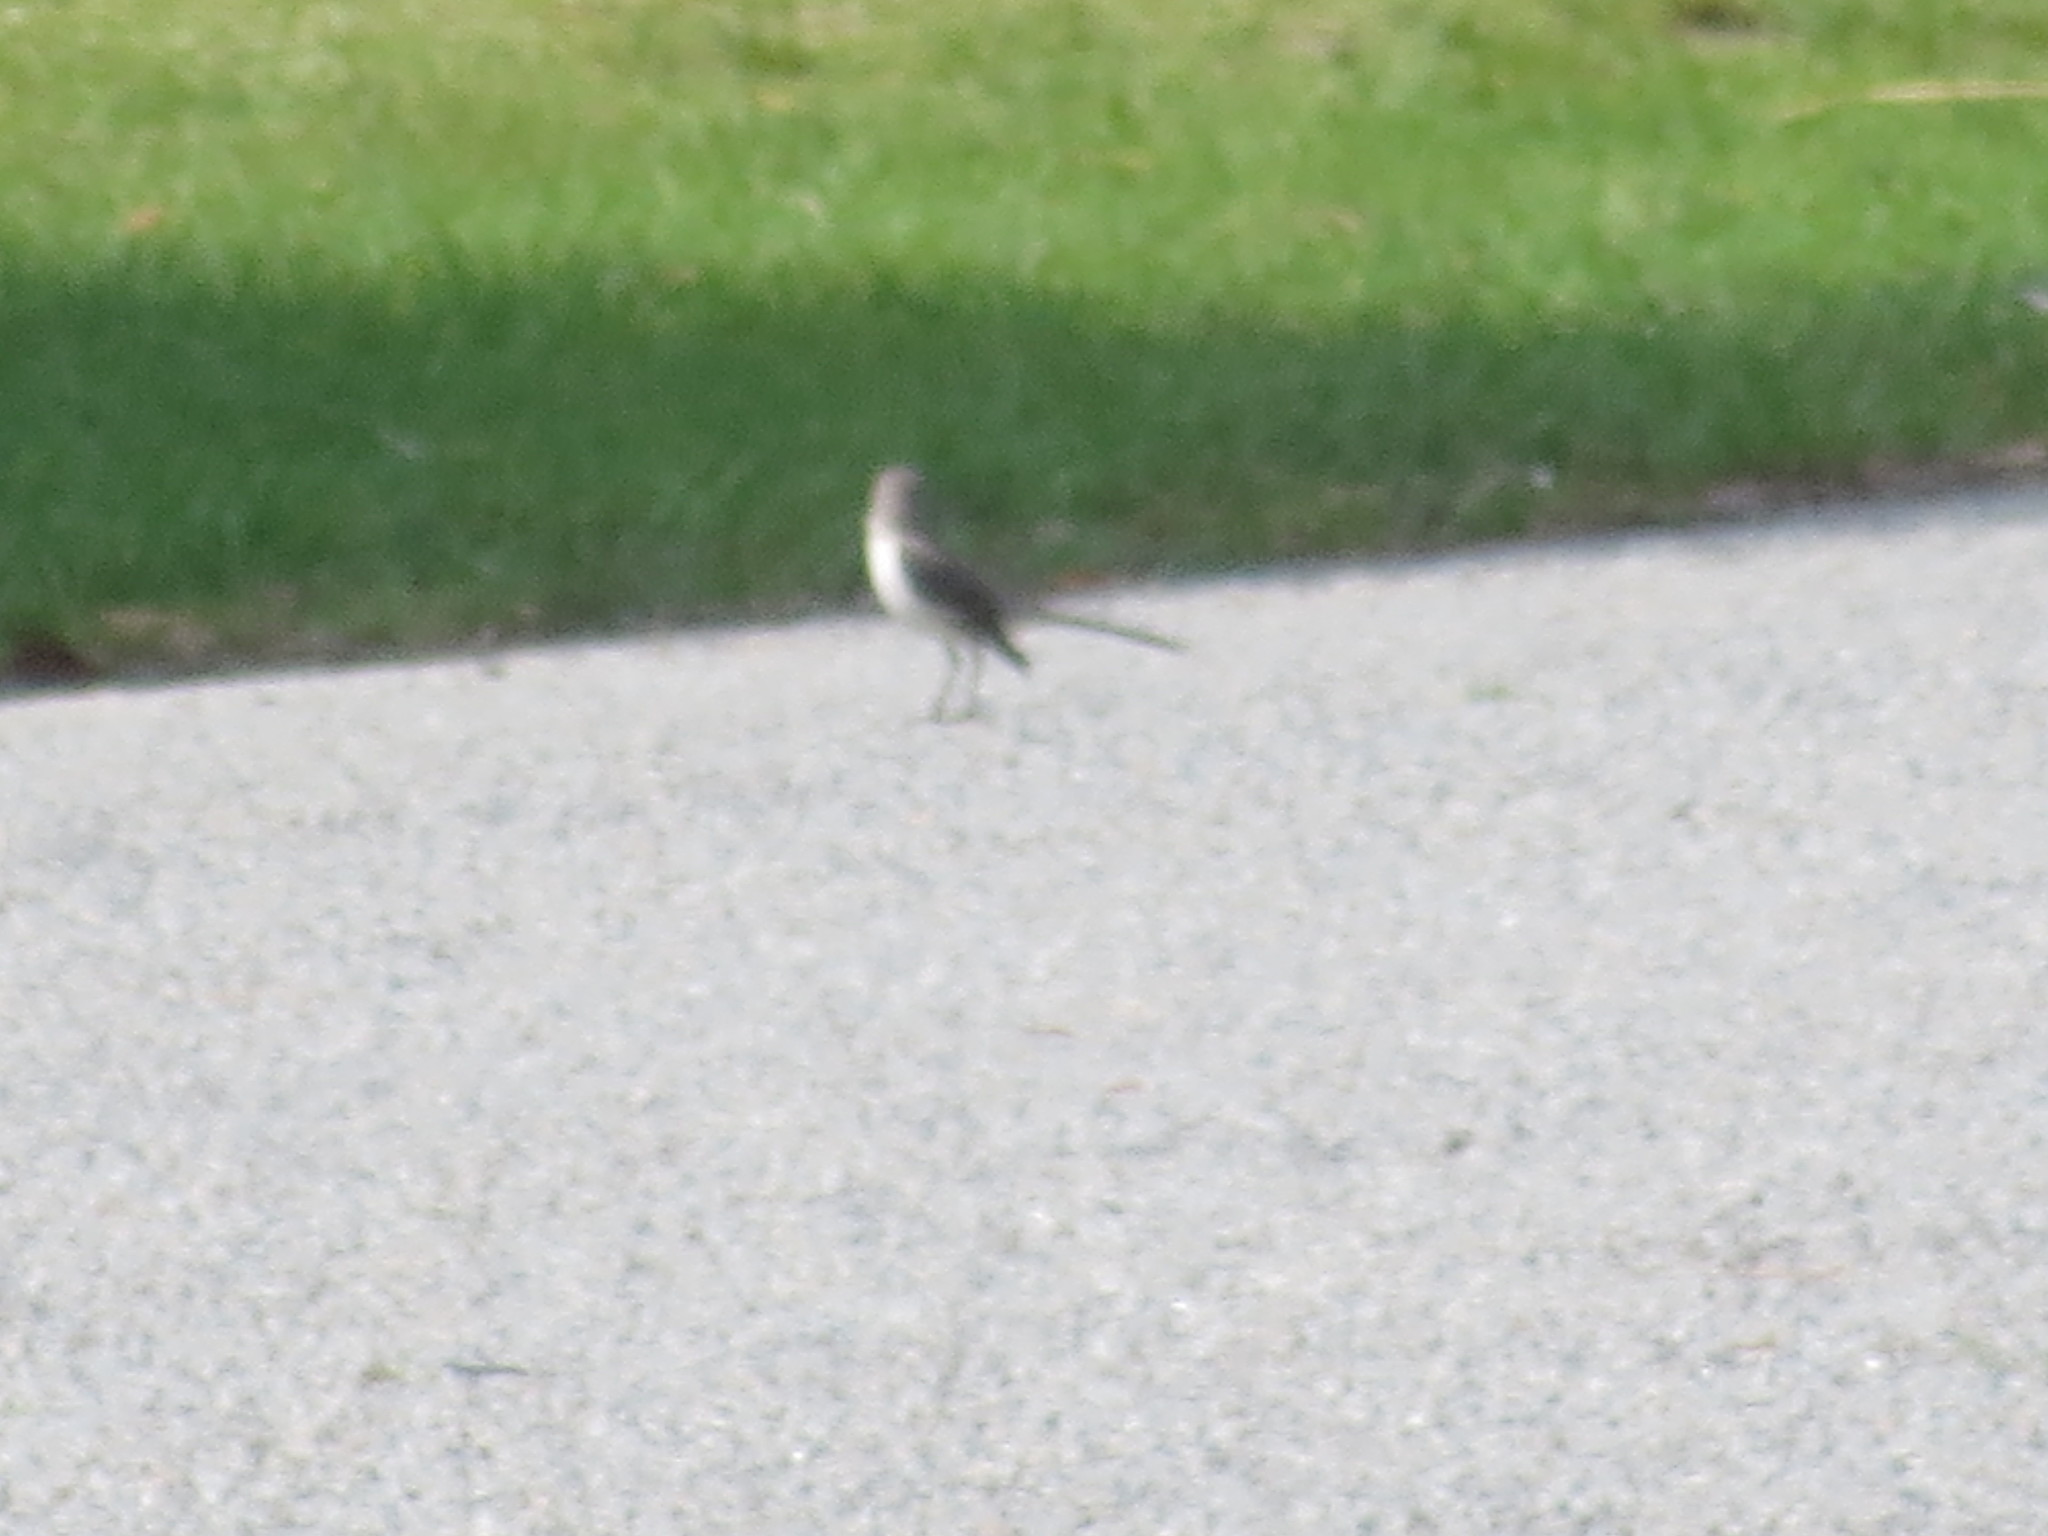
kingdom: Animalia
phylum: Chordata
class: Aves
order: Passeriformes
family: Mimidae
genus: Mimus
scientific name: Mimus polyglottos
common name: Northern mockingbird
